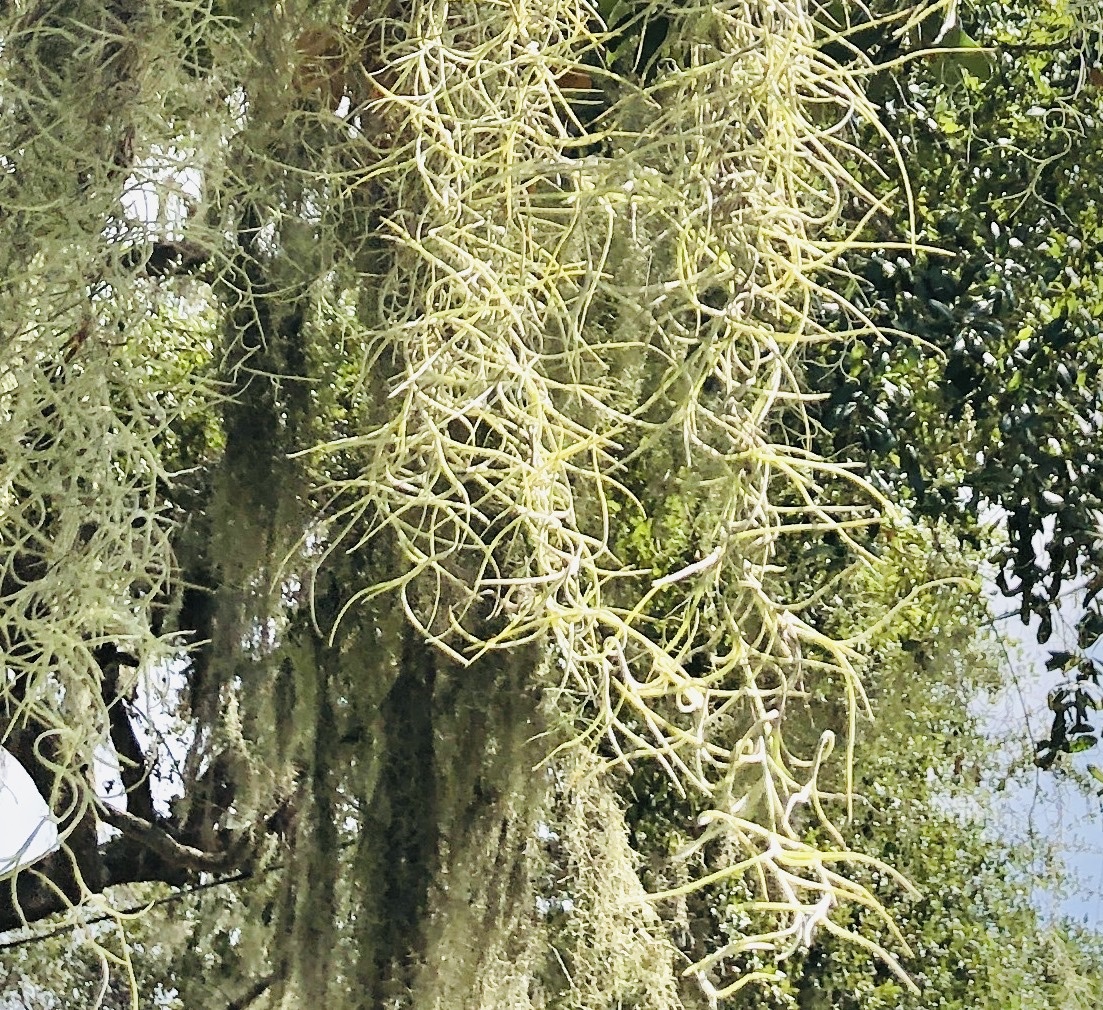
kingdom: Plantae
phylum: Tracheophyta
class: Liliopsida
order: Poales
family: Bromeliaceae
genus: Tillandsia
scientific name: Tillandsia usneoides
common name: Spanish moss
